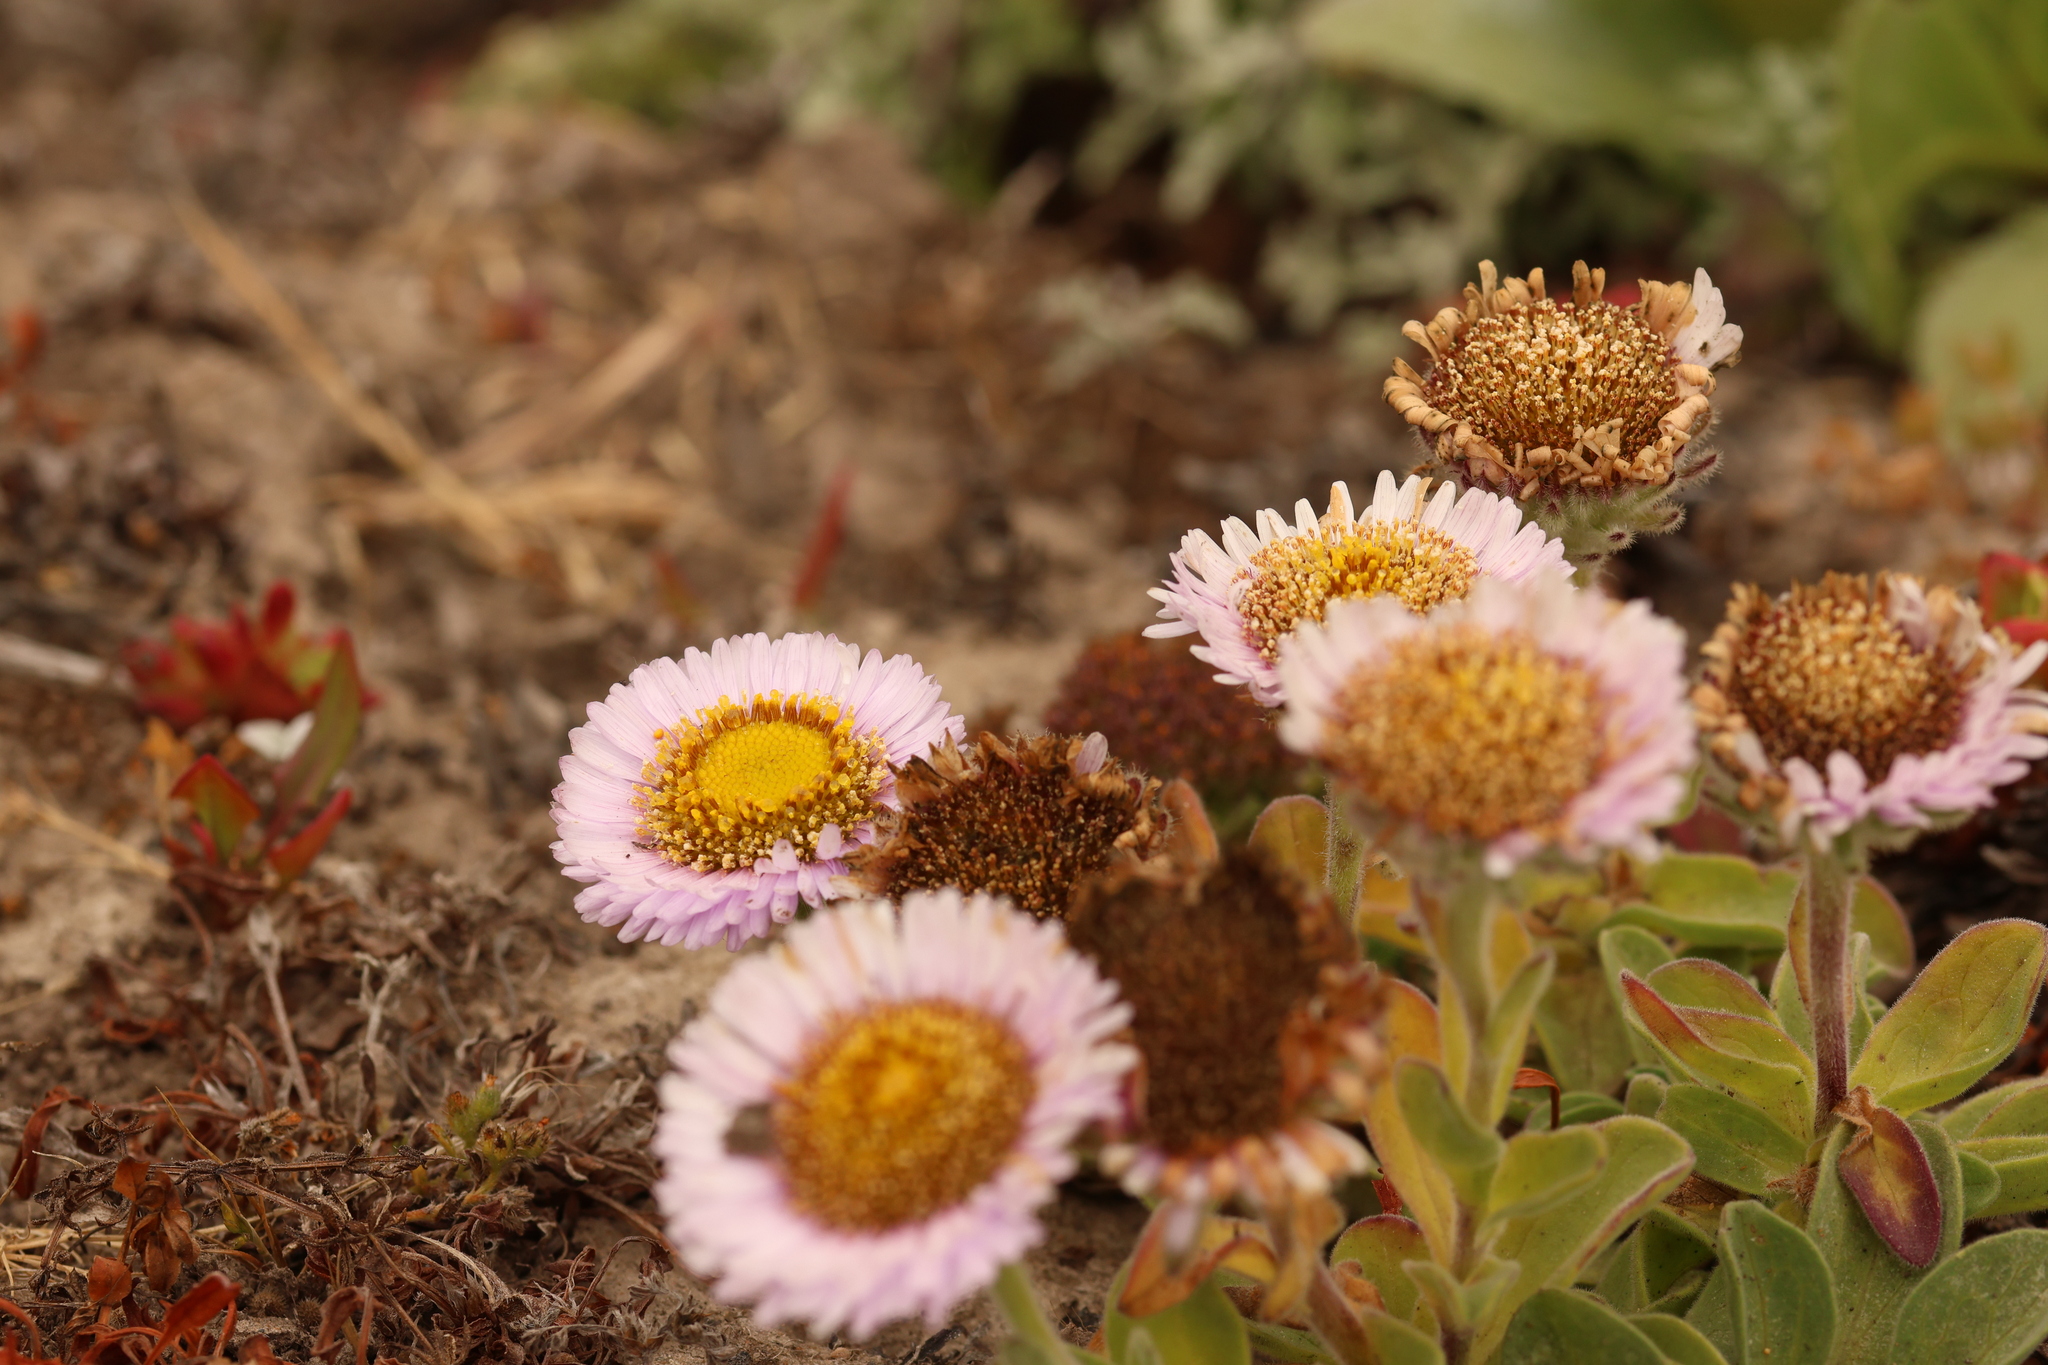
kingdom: Plantae
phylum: Tracheophyta
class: Magnoliopsida
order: Asterales
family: Asteraceae
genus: Erigeron
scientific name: Erigeron glaucus
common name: Seaside daisy
